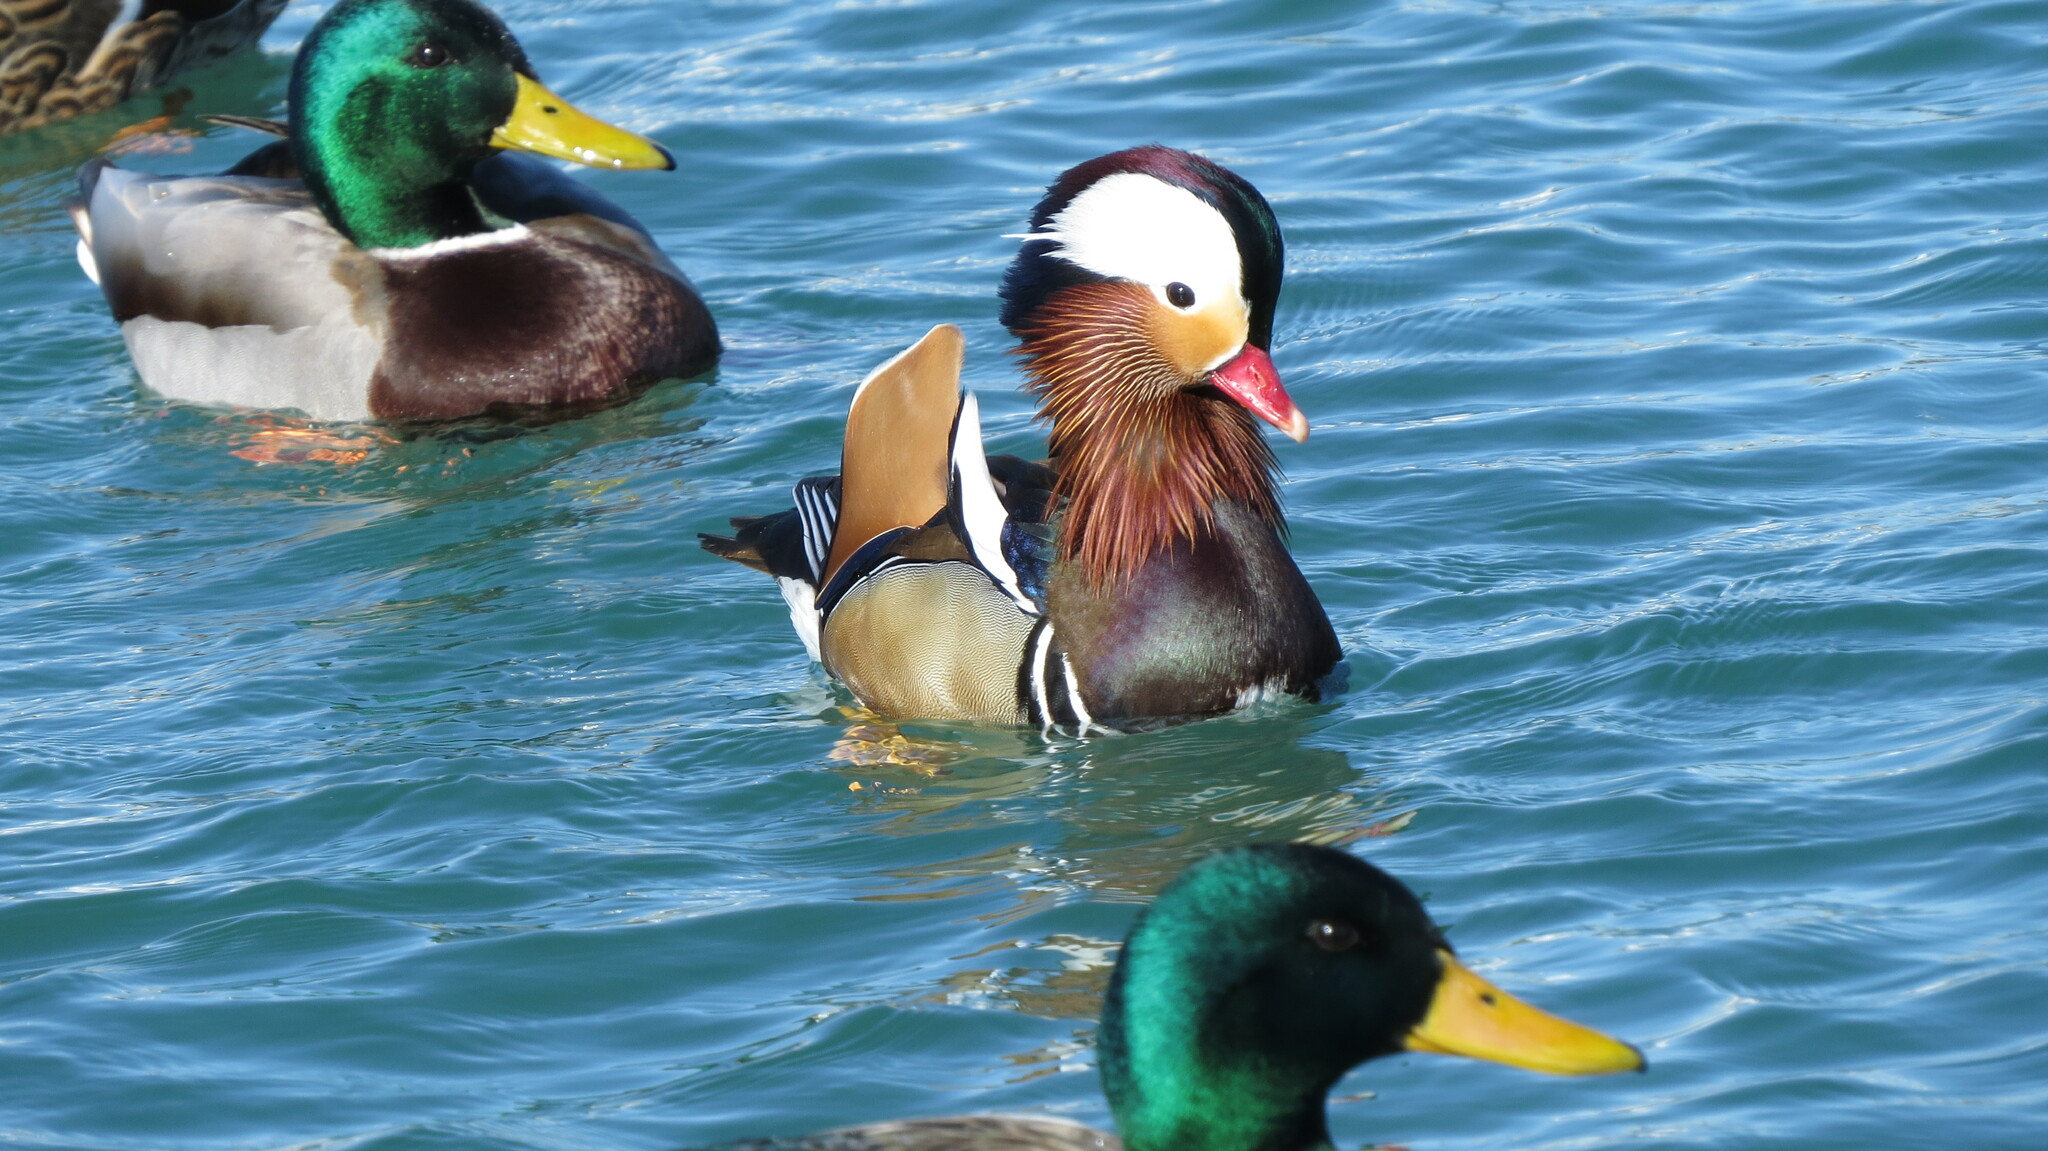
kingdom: Animalia
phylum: Chordata
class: Aves
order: Anseriformes
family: Anatidae
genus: Aix
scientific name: Aix galericulata
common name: Mandarin duck
